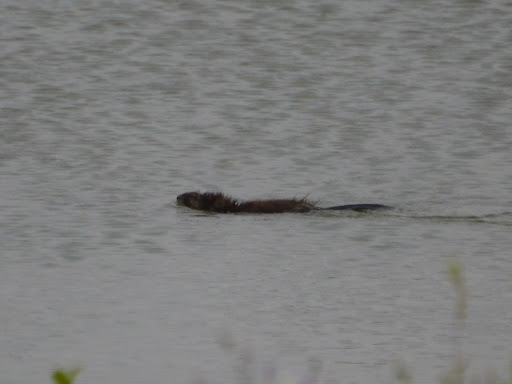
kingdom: Animalia
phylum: Chordata
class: Mammalia
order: Rodentia
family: Cricetidae
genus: Ondatra
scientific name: Ondatra zibethicus
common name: Muskrat
